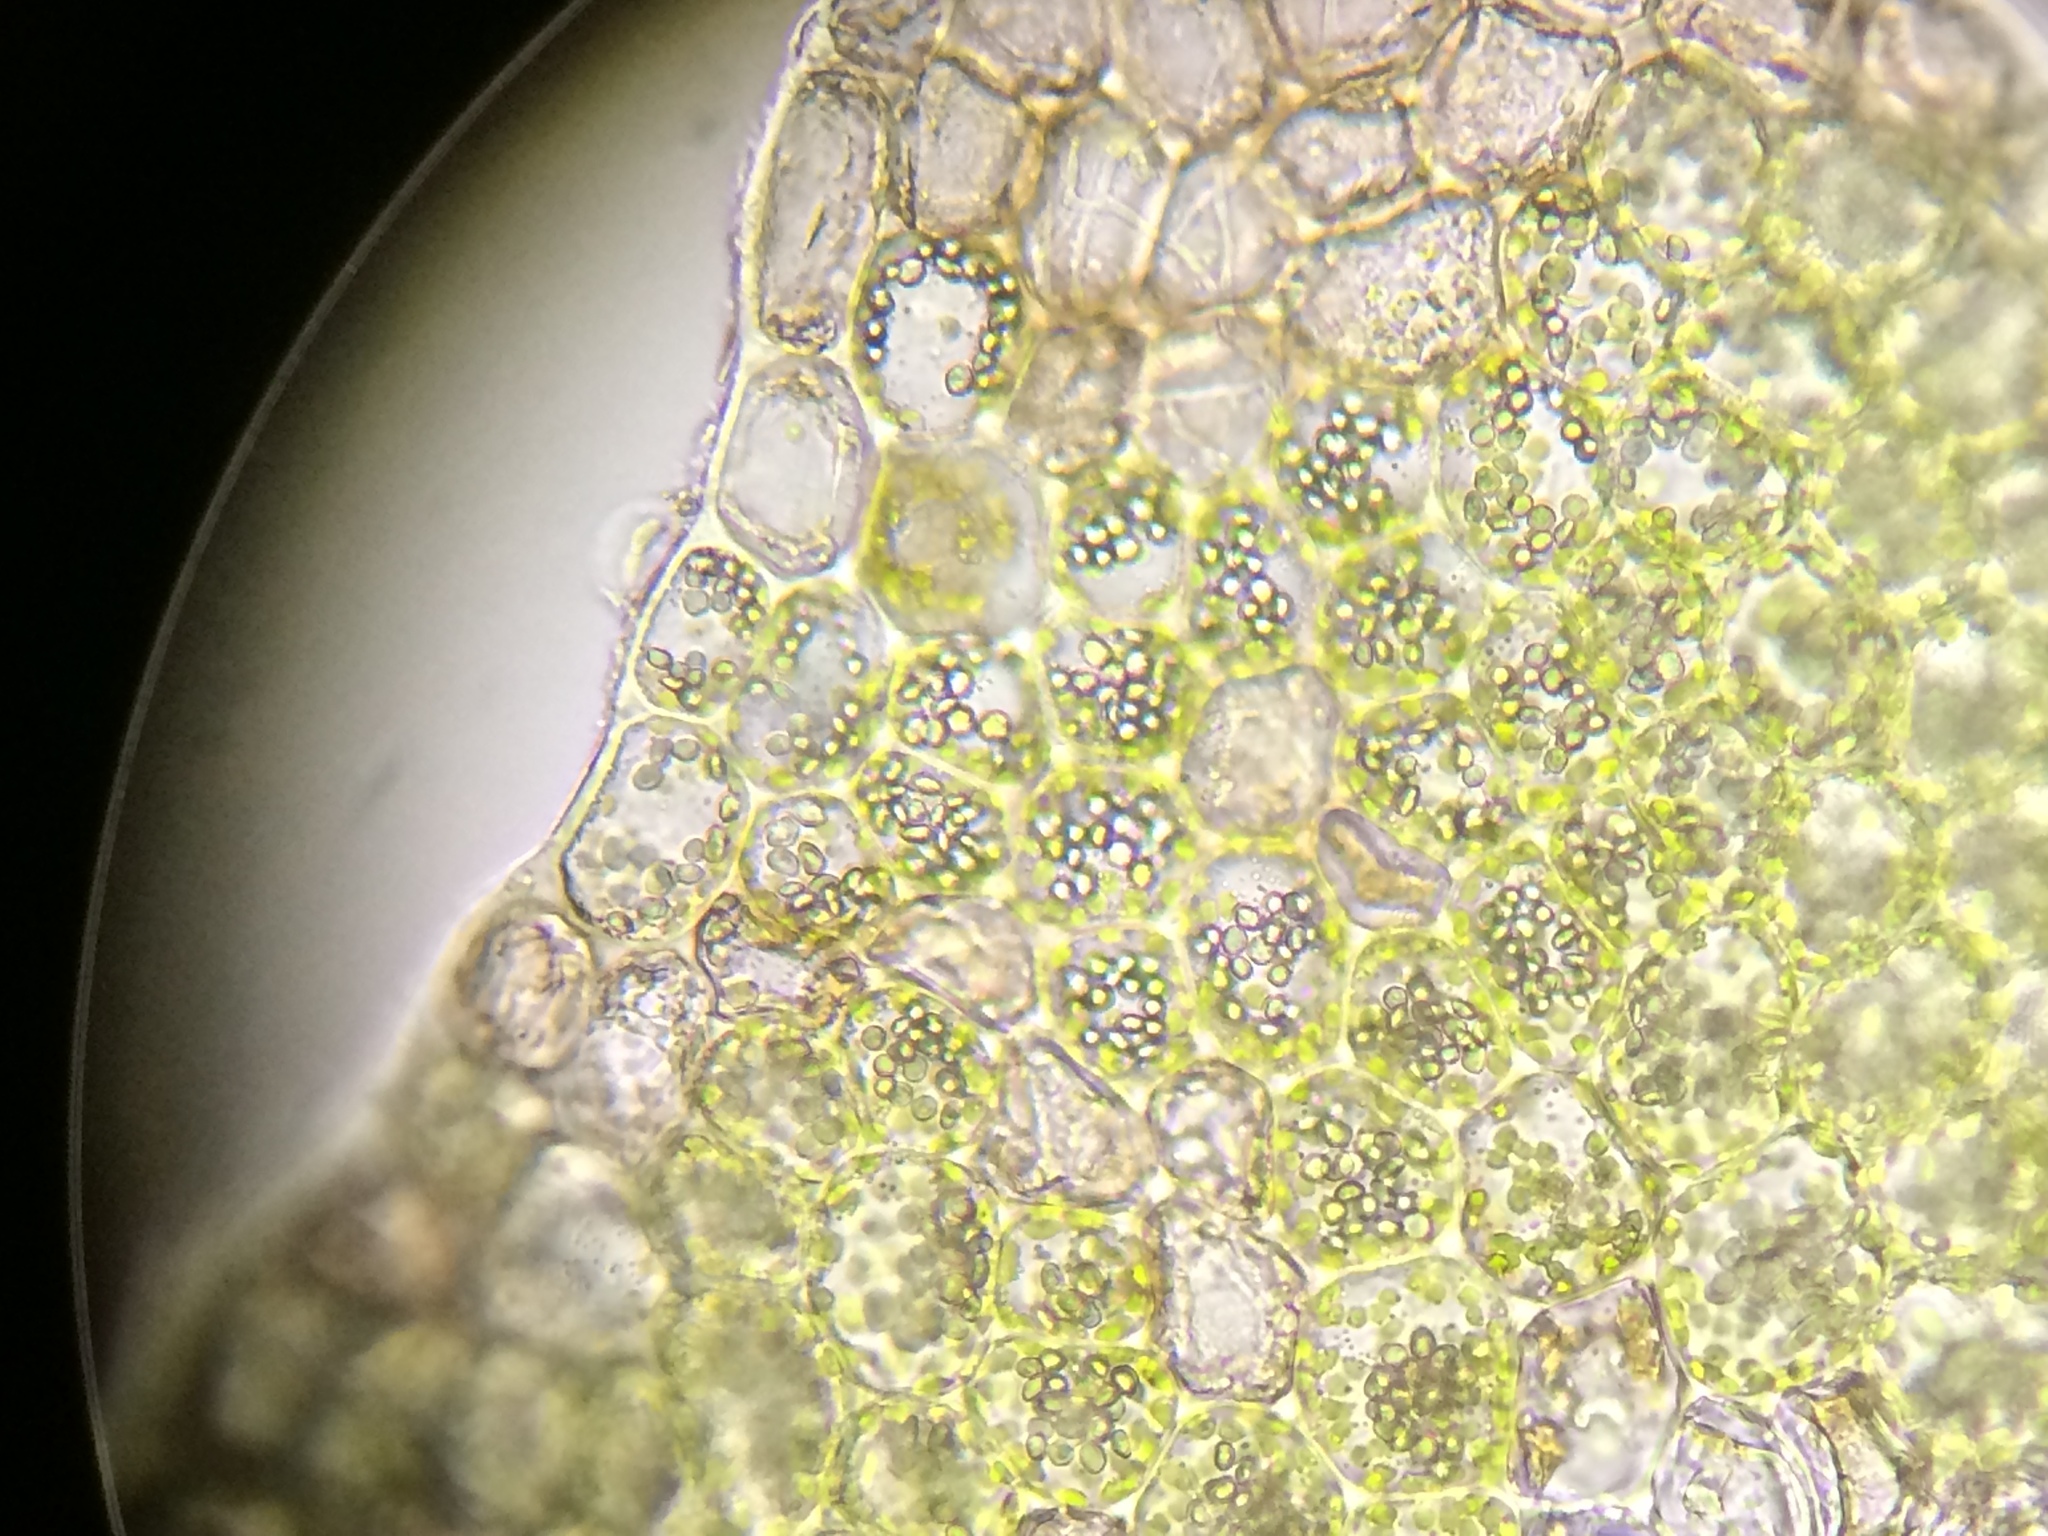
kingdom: Plantae
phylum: Marchantiophyta
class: Jungermanniopsida
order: Jungermanniales
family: Scapaniaceae
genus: Schistochilopsis
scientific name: Schistochilopsis incisa
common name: Jagged notchwort
